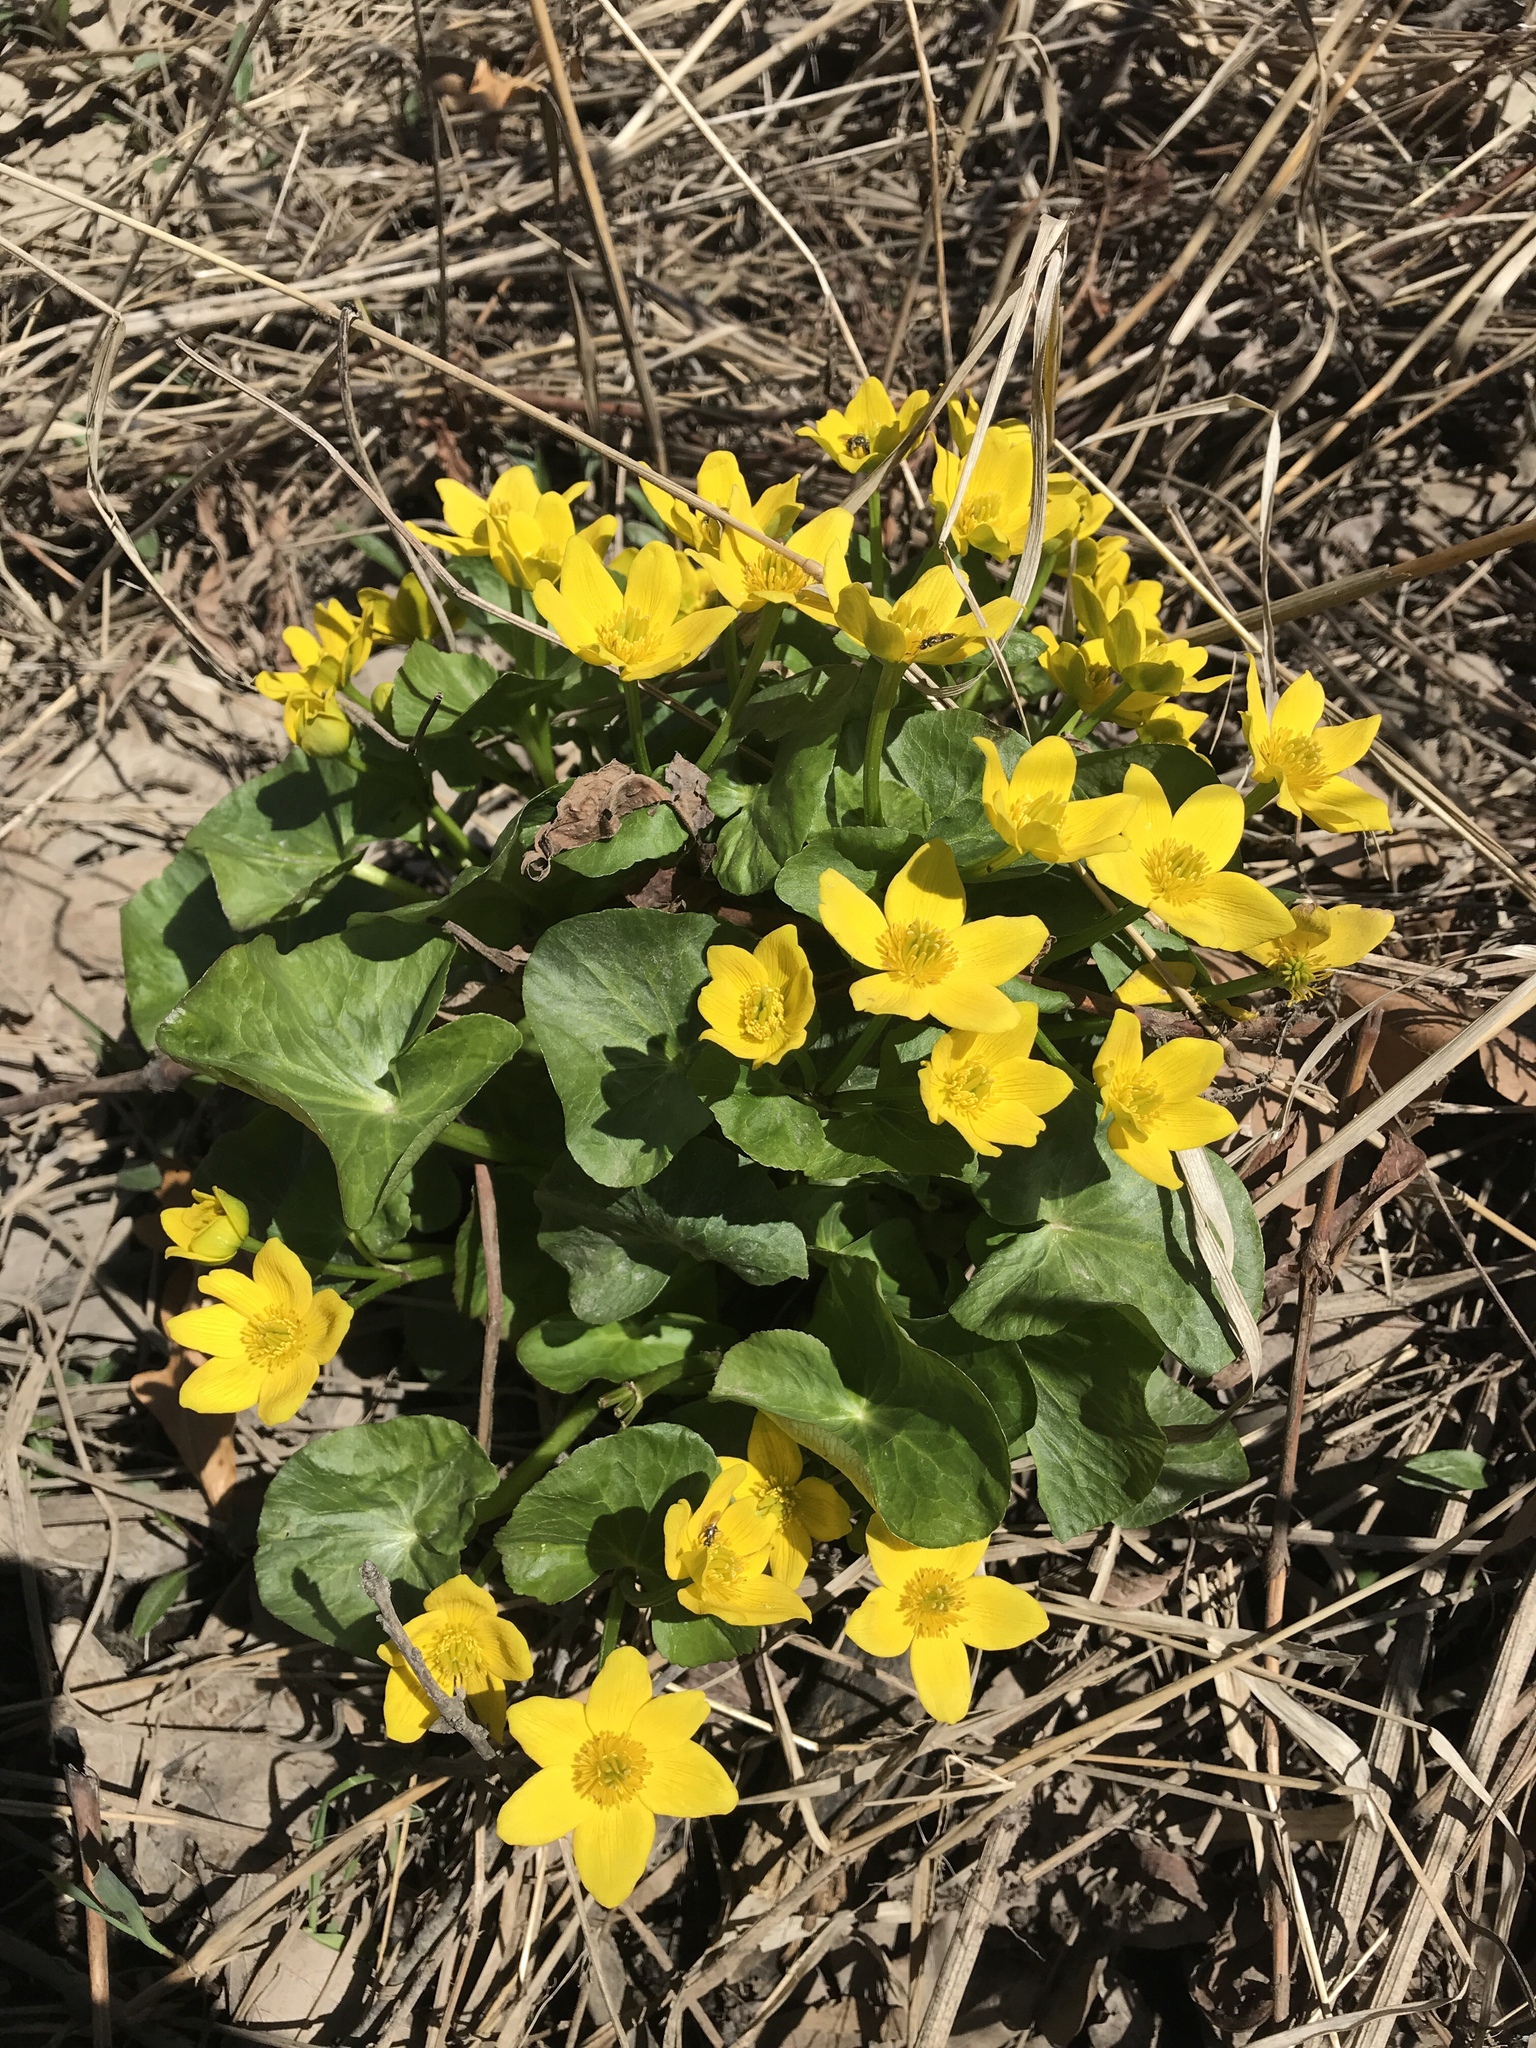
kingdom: Plantae
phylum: Tracheophyta
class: Magnoliopsida
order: Ranunculales
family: Ranunculaceae
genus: Caltha
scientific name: Caltha palustris
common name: Marsh marigold
